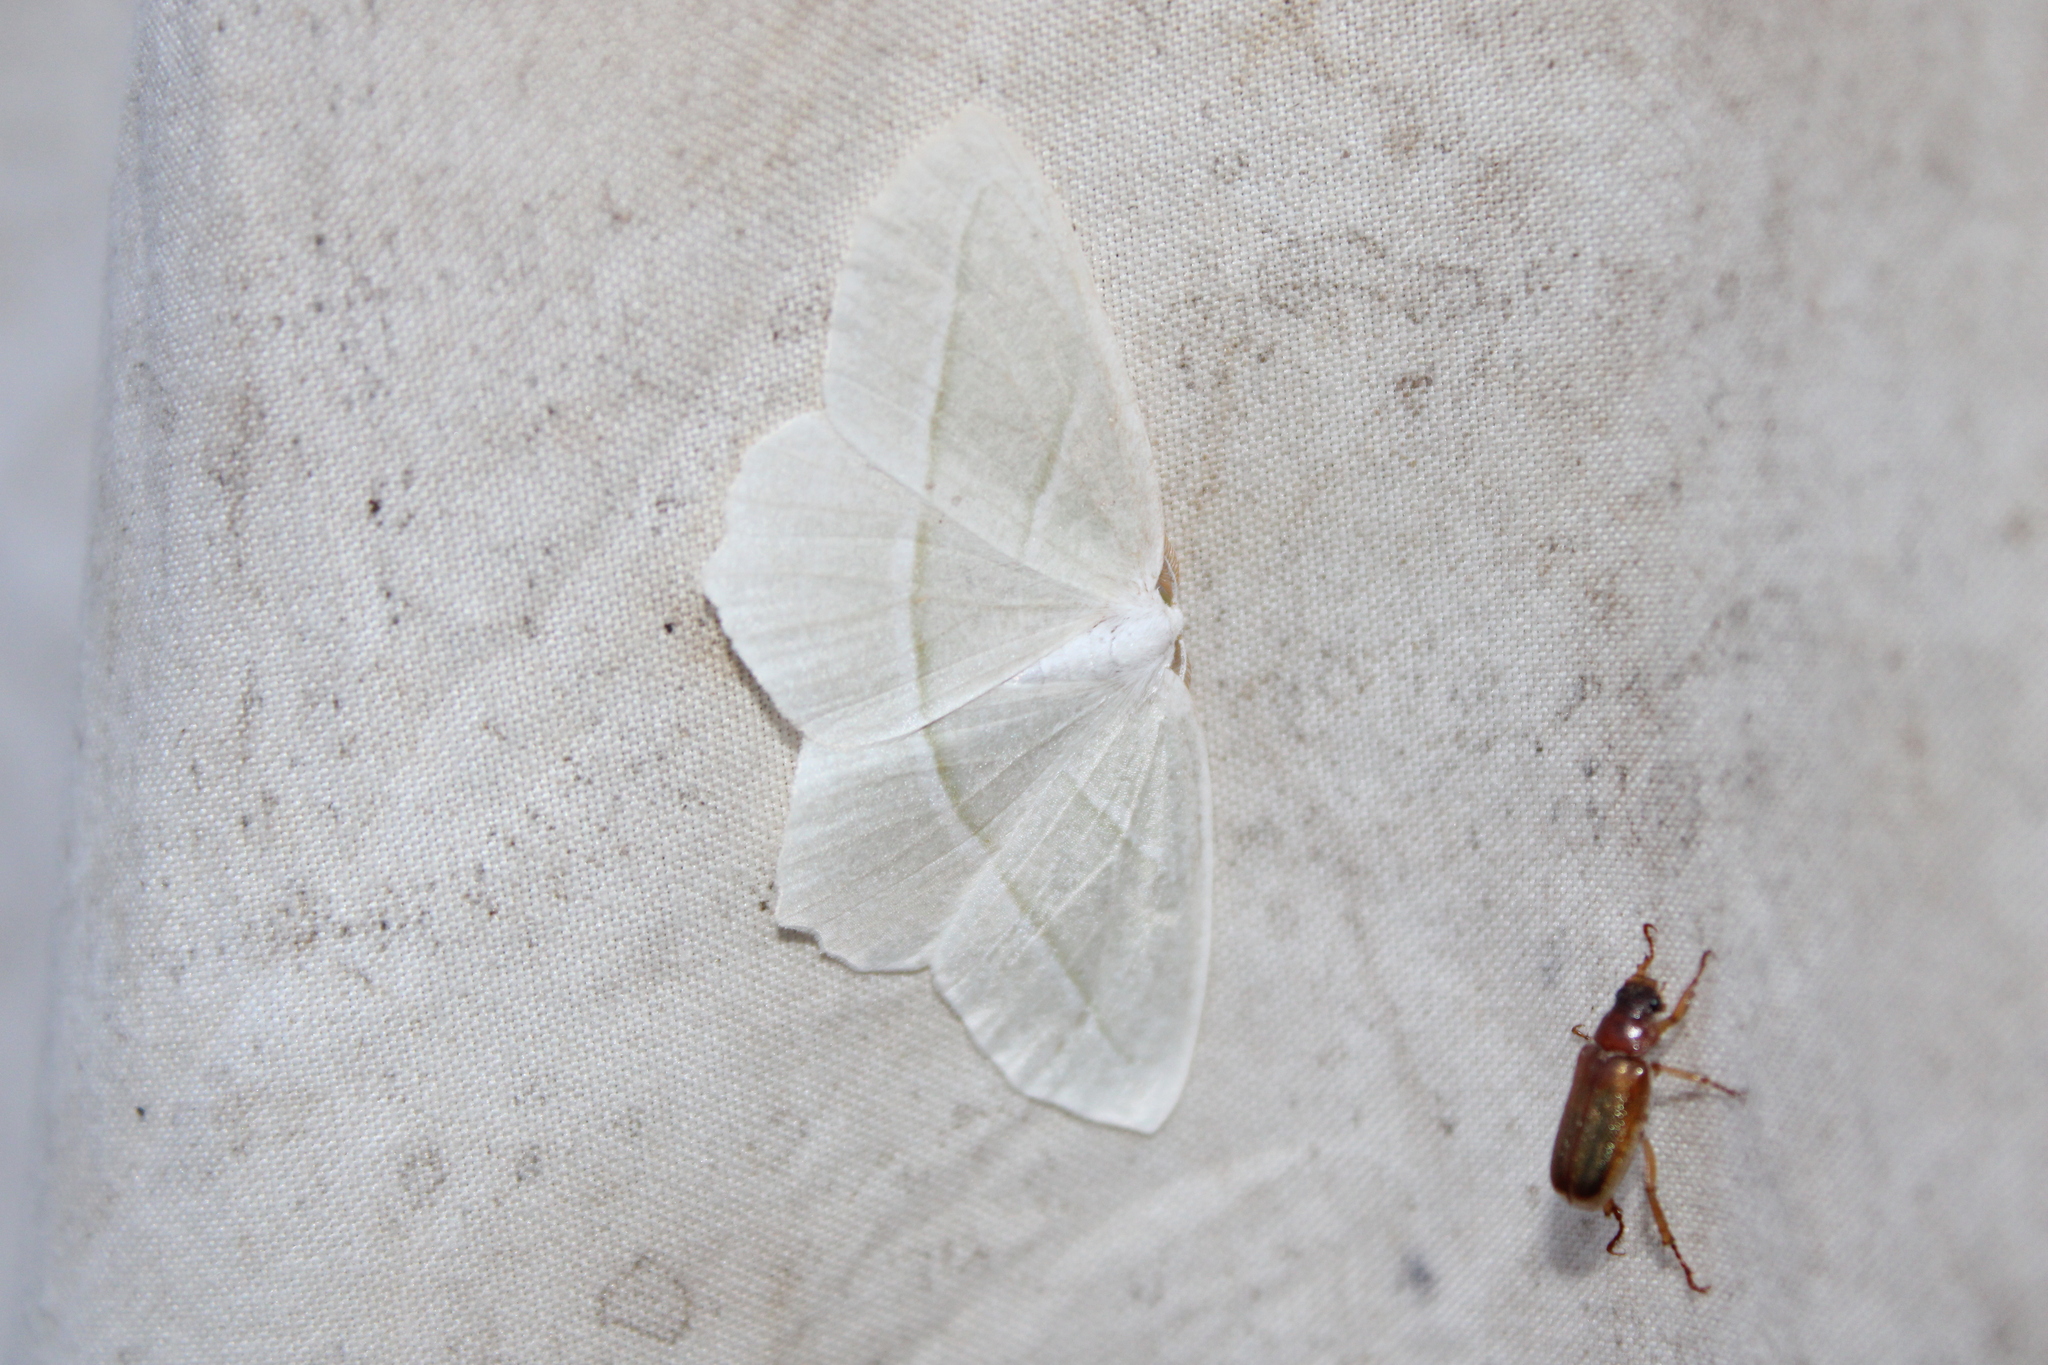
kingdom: Animalia
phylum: Arthropoda
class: Insecta
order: Lepidoptera
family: Geometridae
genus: Campaea
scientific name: Campaea perlata
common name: Fringed looper
